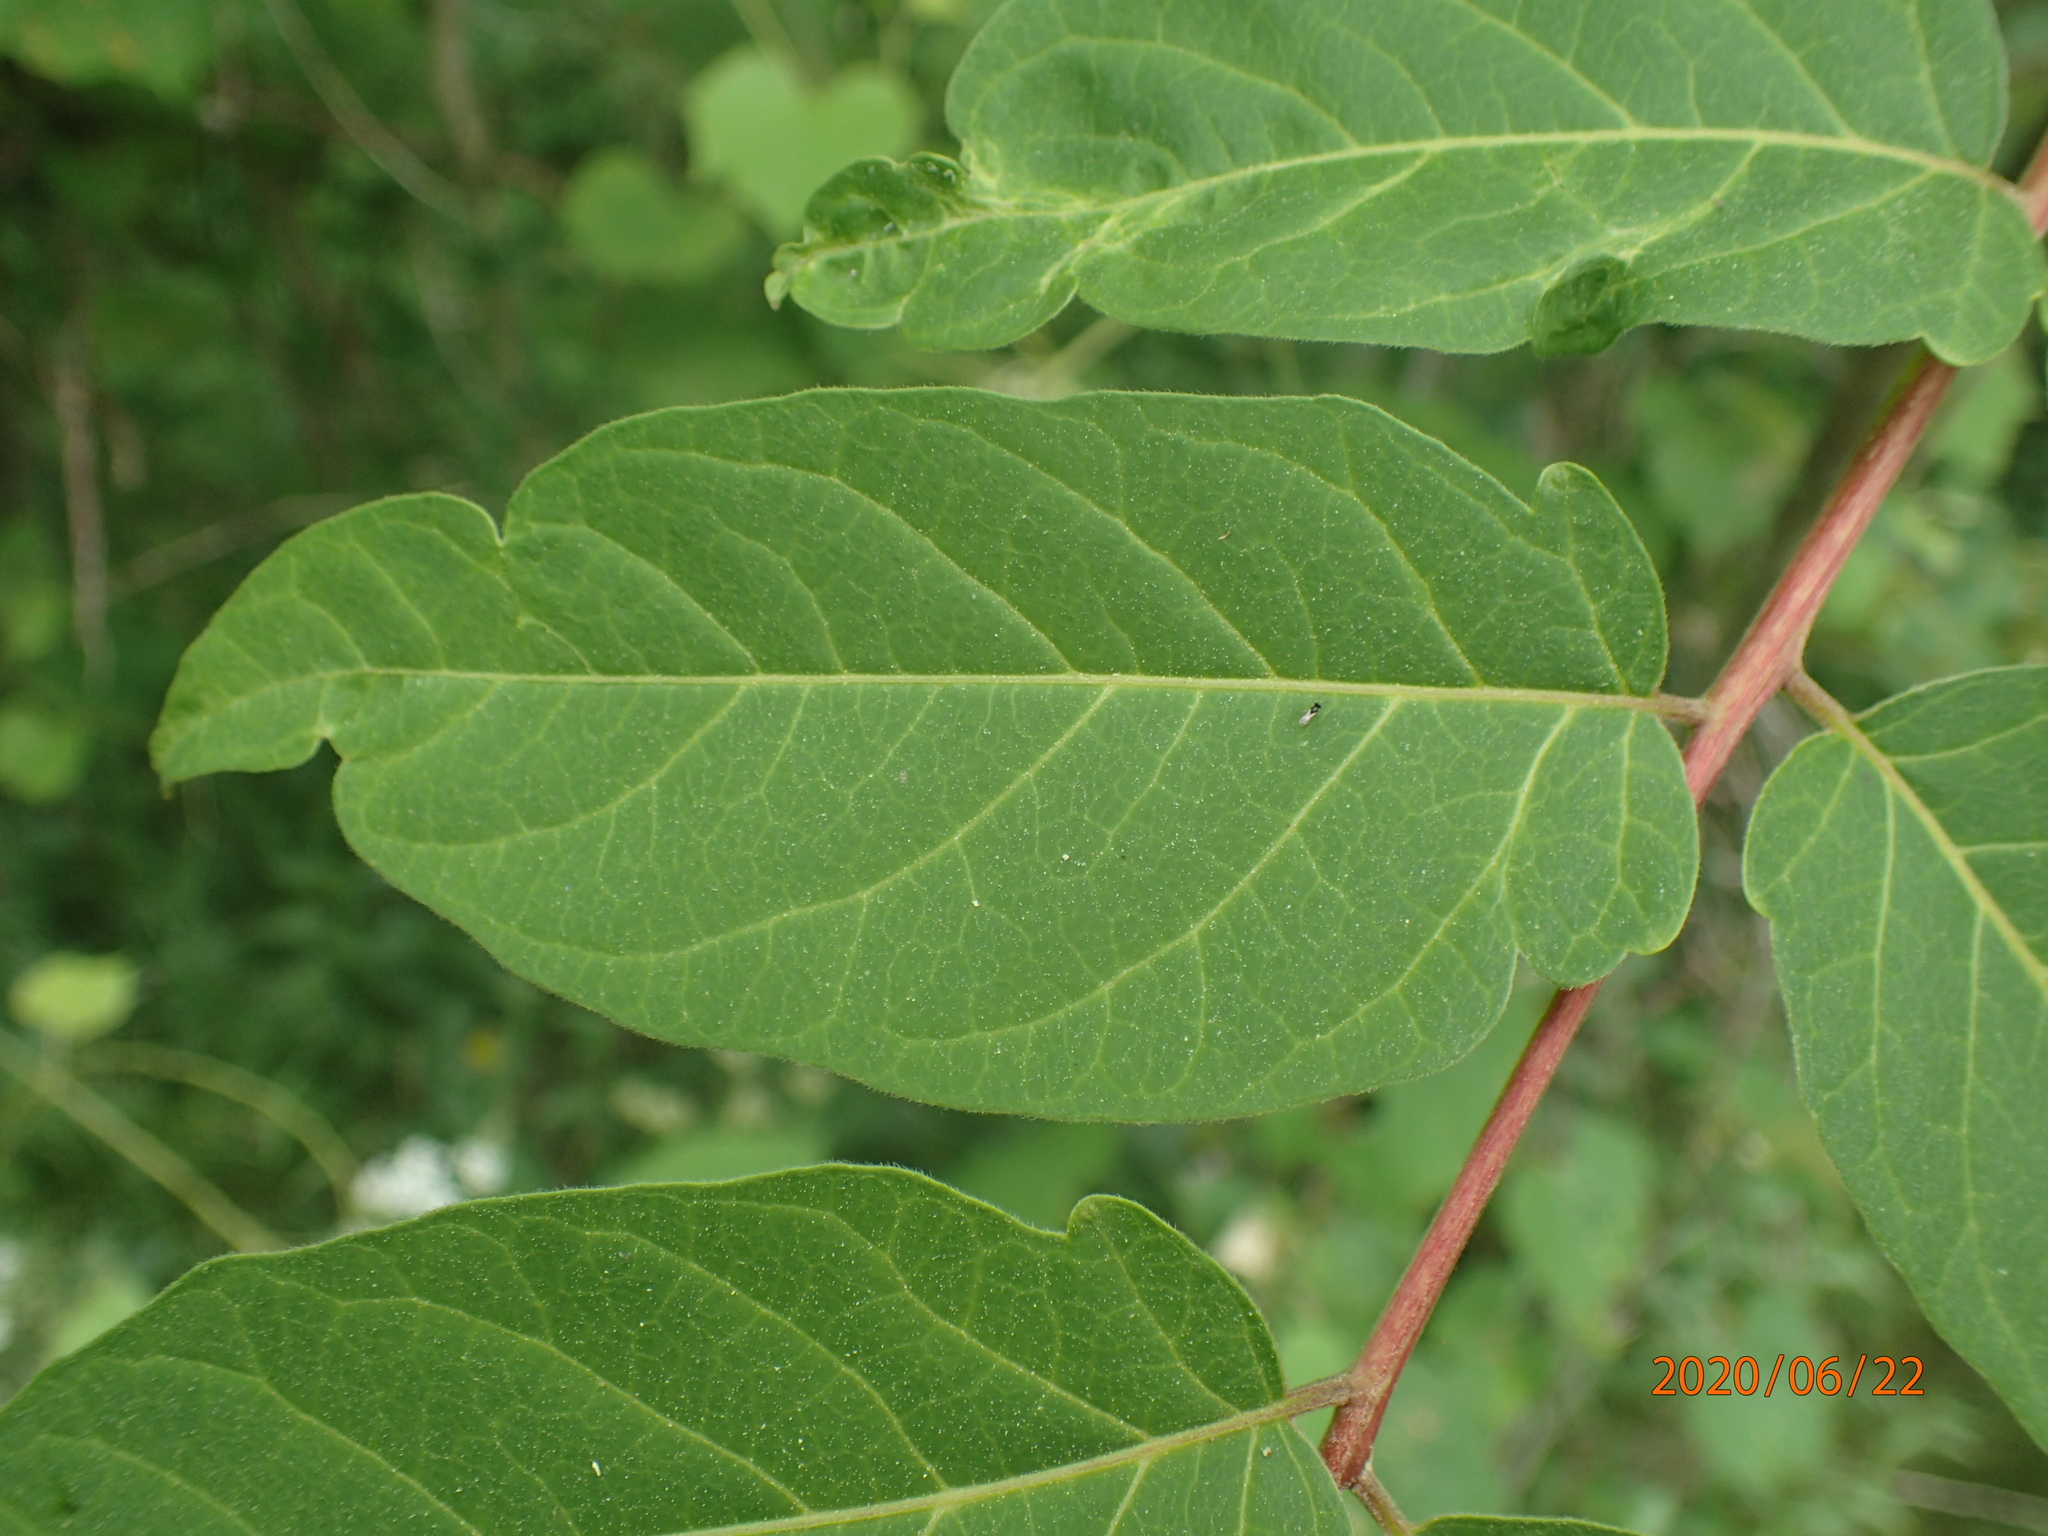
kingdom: Plantae
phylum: Tracheophyta
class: Magnoliopsida
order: Sapindales
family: Simaroubaceae
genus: Ailanthus
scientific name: Ailanthus altissima
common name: Tree-of-heaven
